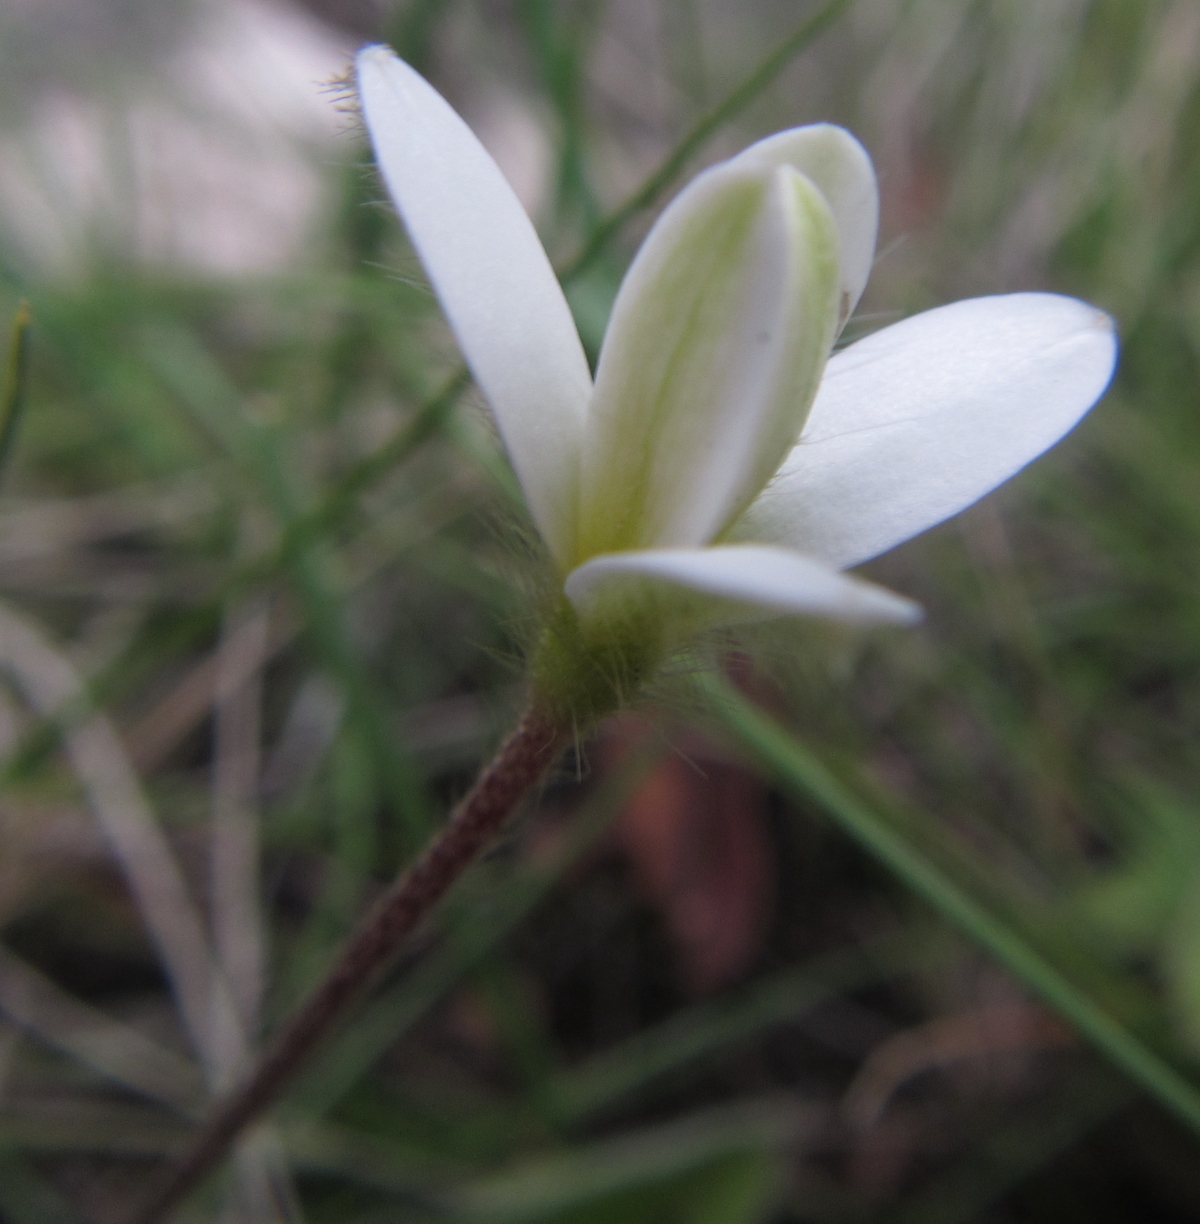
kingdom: Plantae
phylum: Tracheophyta
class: Liliopsida
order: Asparagales
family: Hypoxidaceae
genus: Hypoxis
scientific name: Hypoxis parvula
